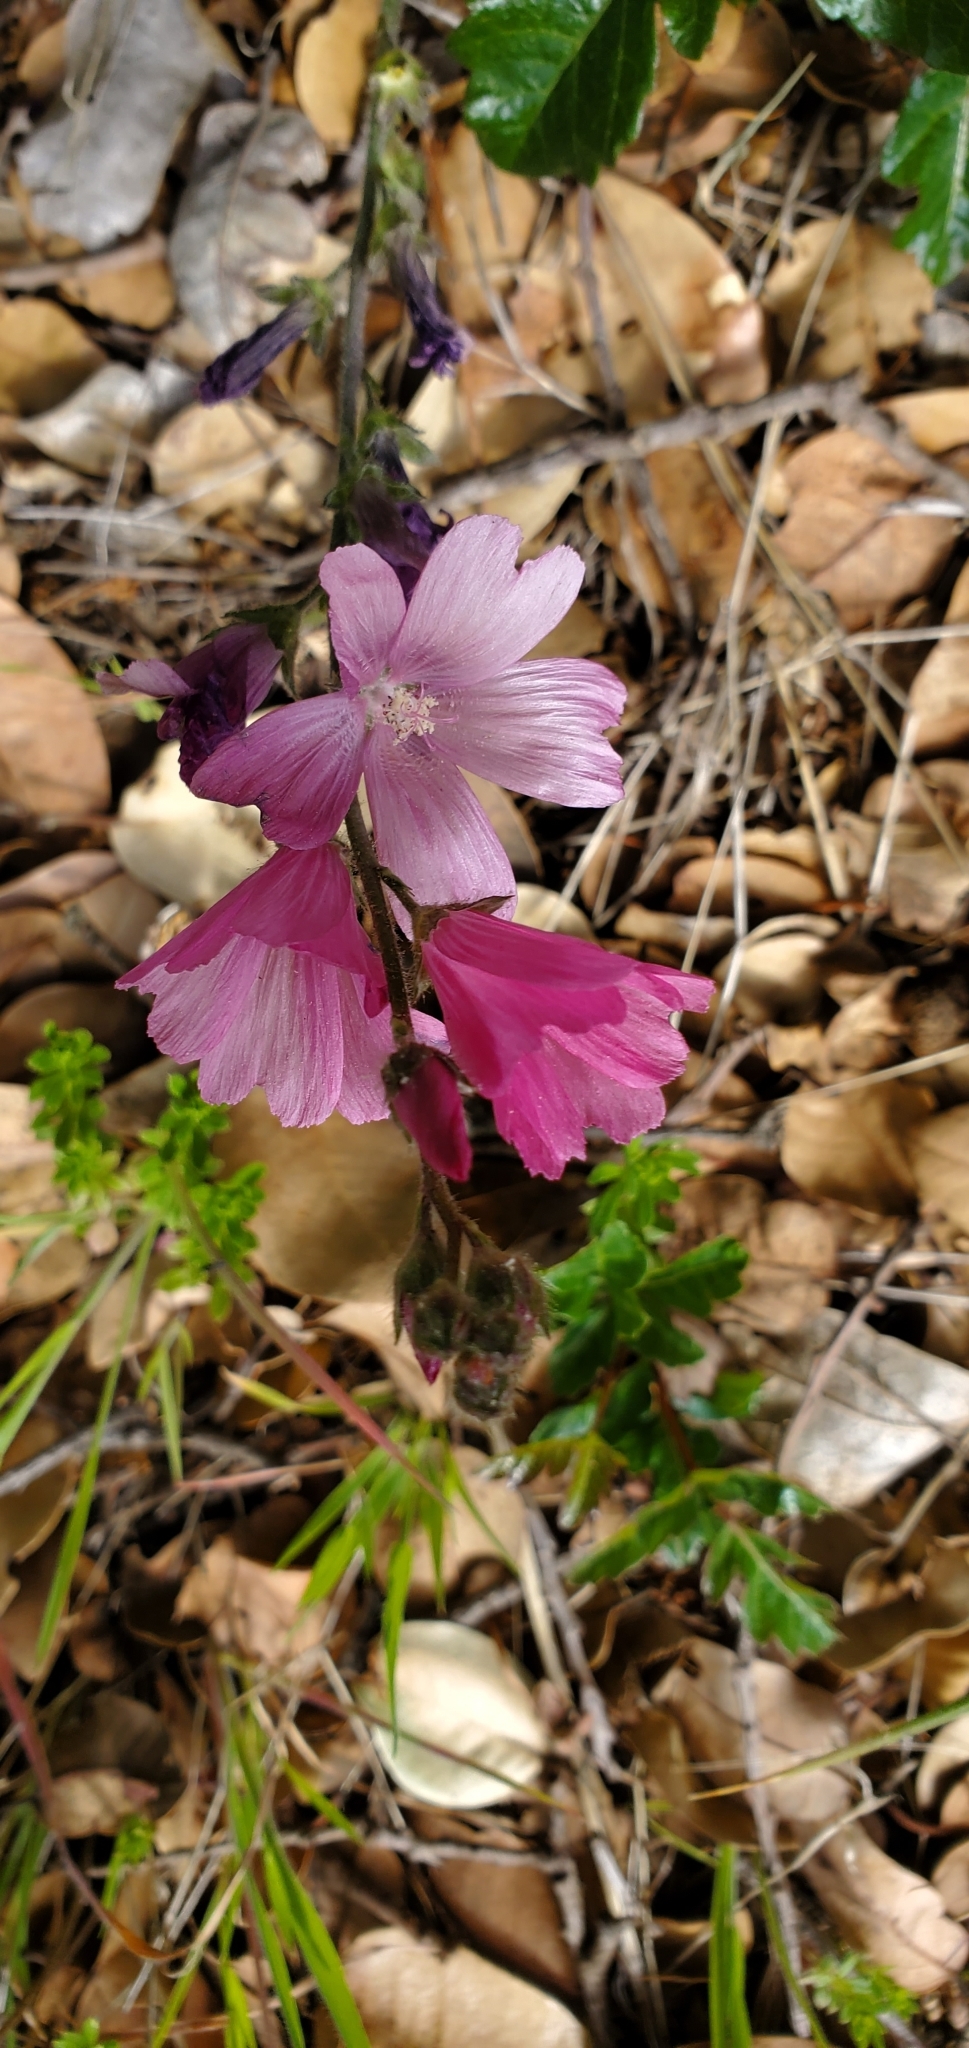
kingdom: Plantae
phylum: Tracheophyta
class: Magnoliopsida
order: Malvales
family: Malvaceae
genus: Sidalcea
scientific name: Sidalcea malviflora
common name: Greek mallow
